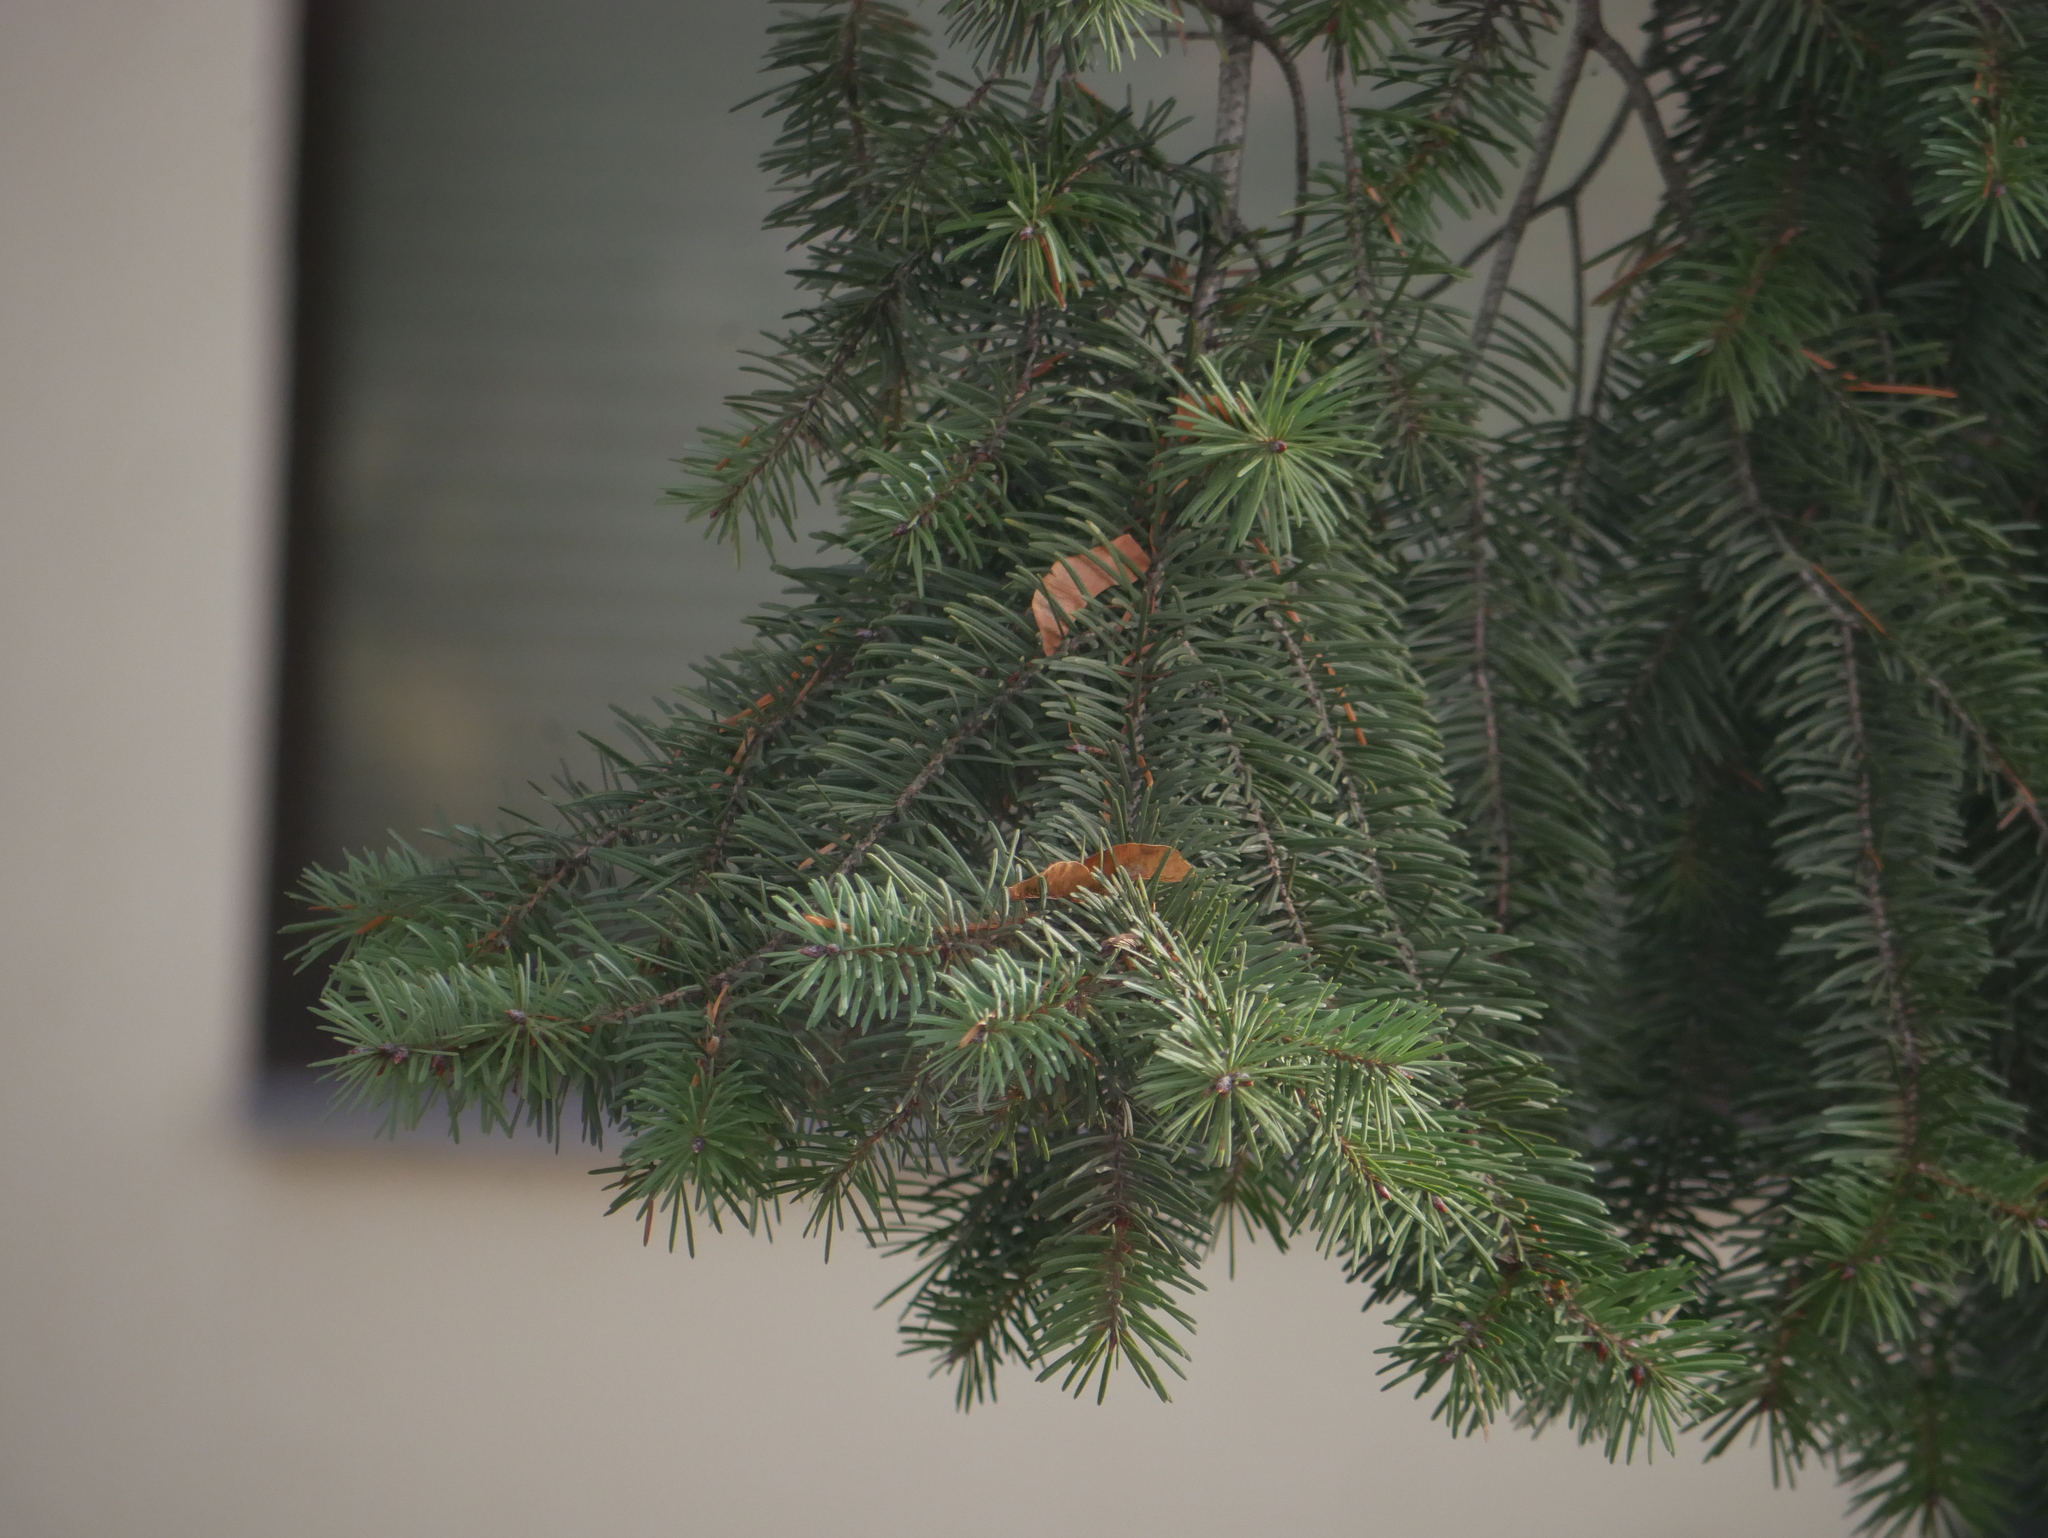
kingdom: Plantae
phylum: Tracheophyta
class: Pinopsida
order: Pinales
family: Pinaceae
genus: Picea
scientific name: Picea abies
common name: Norway spruce
